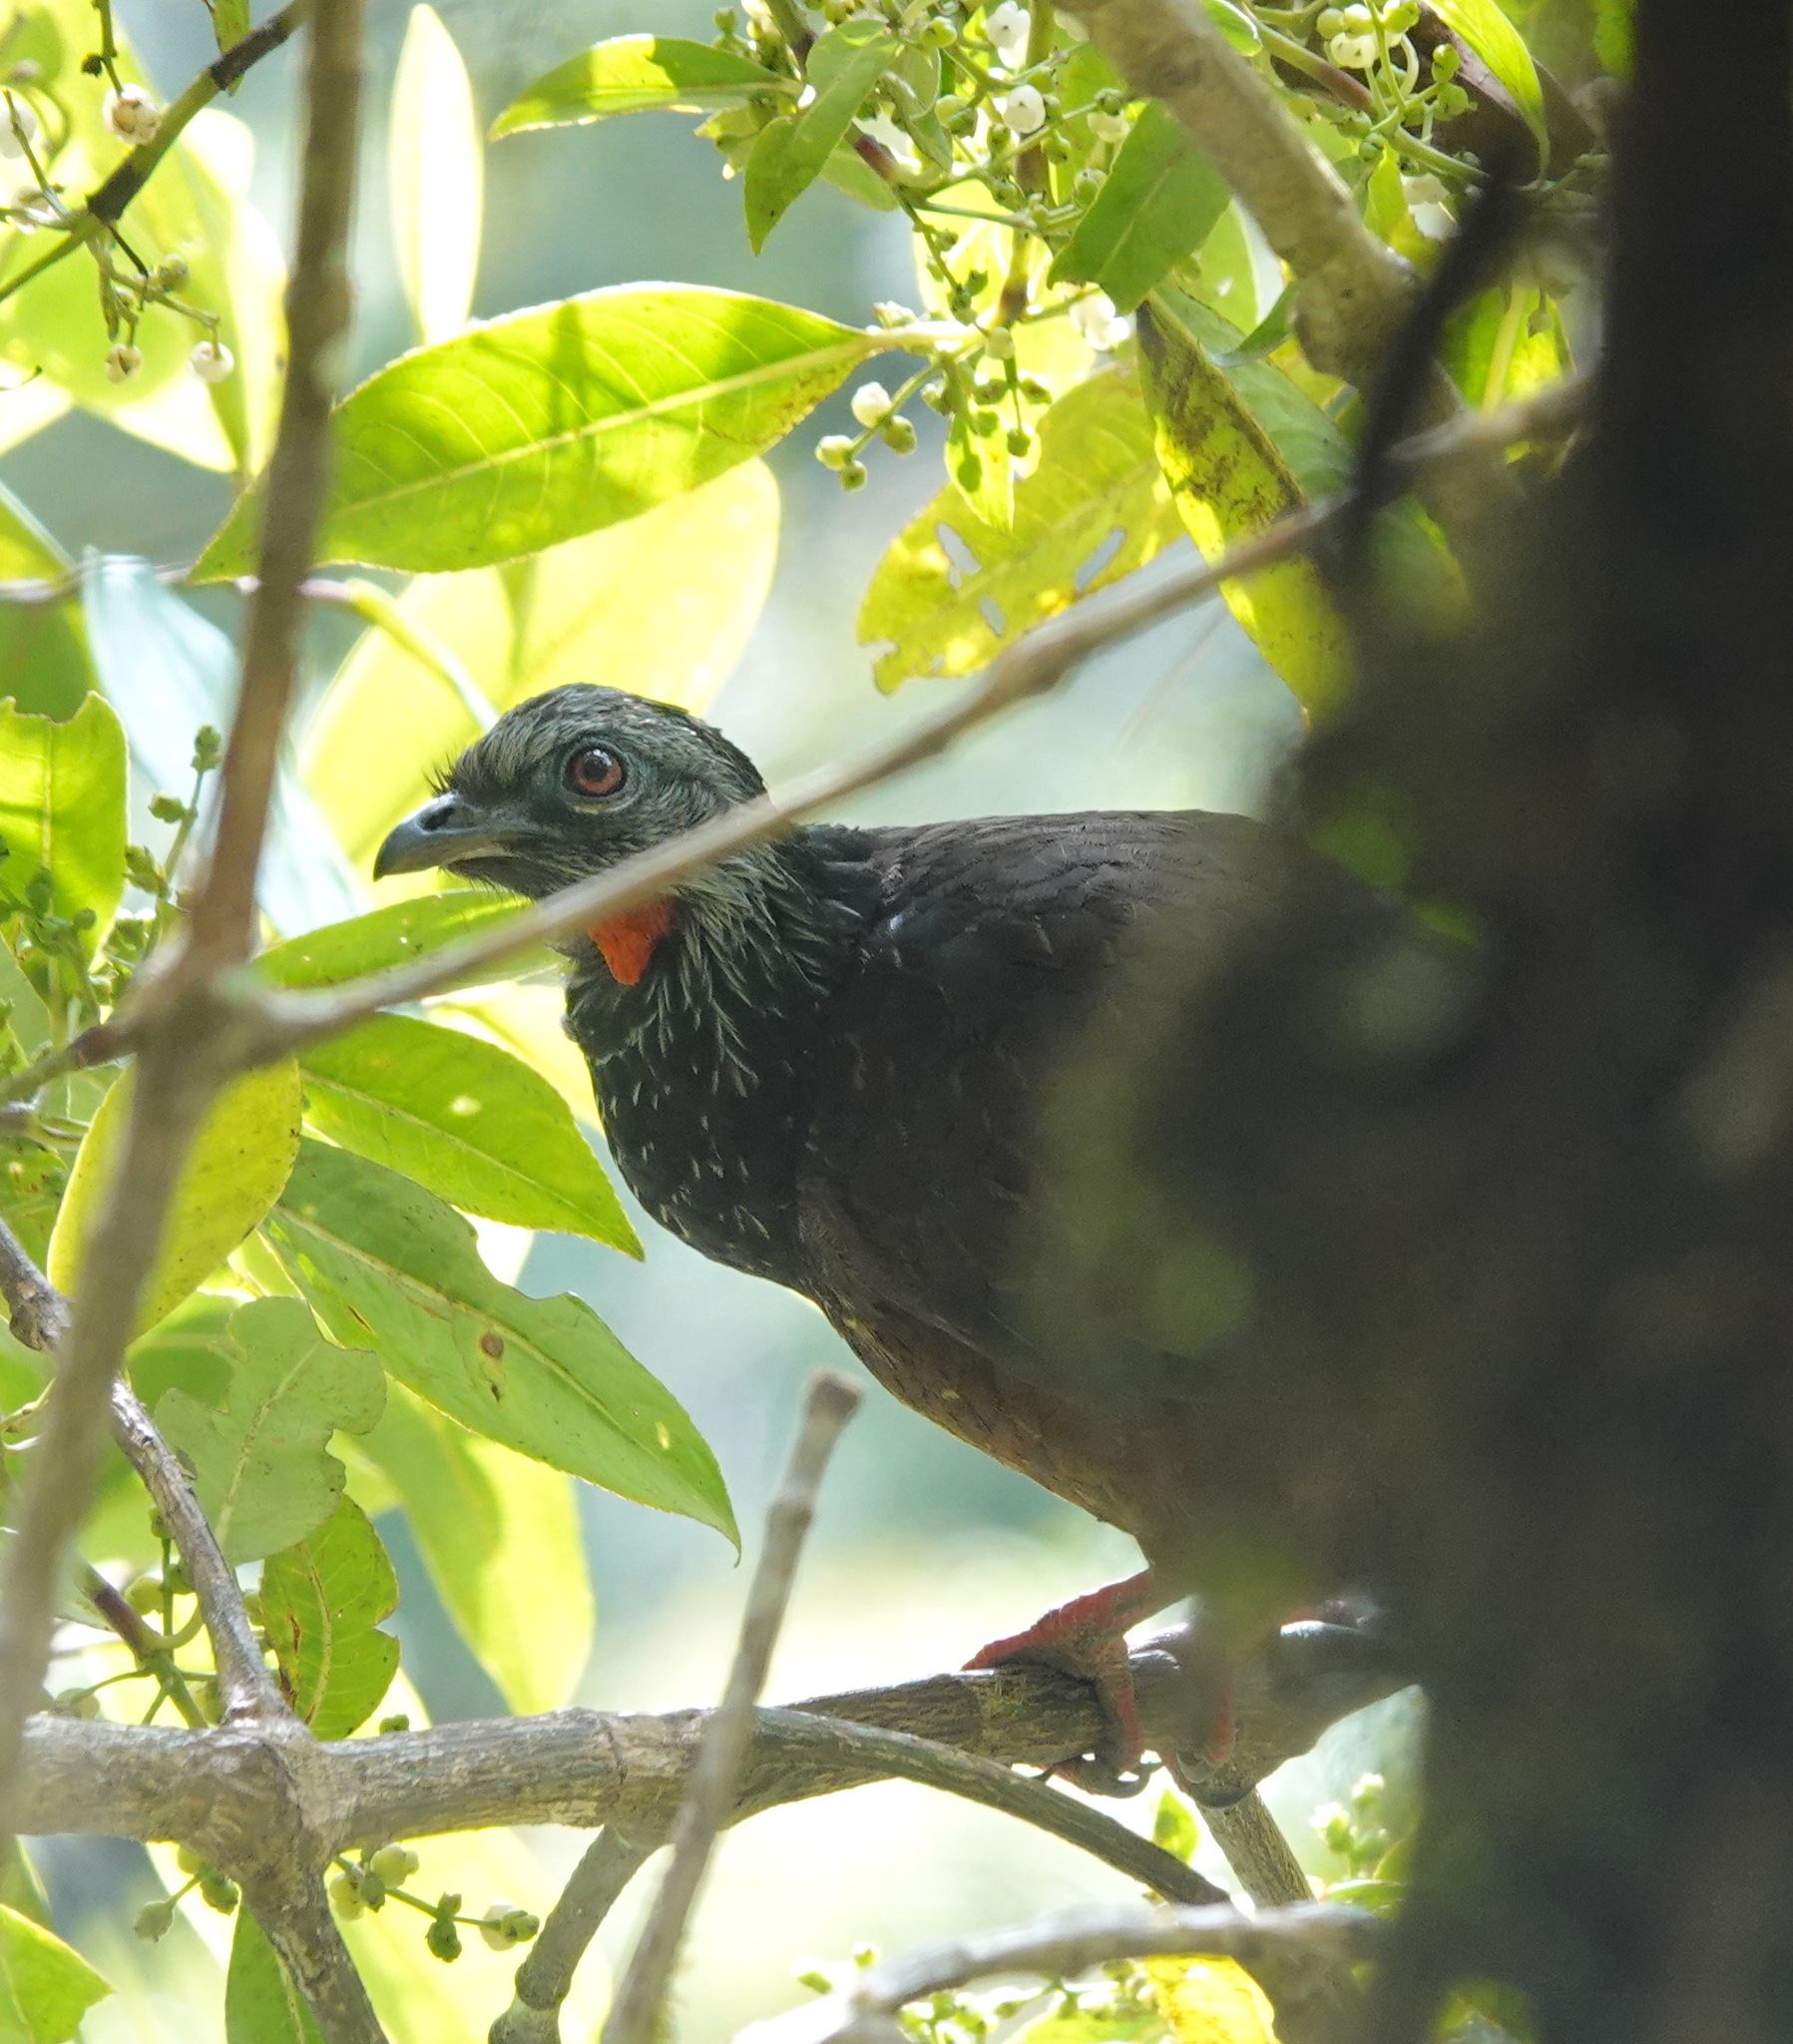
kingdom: Animalia
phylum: Chordata
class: Aves
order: Galliformes
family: Cracidae
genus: Penelope
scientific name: Penelope montagnii
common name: Andean guan
